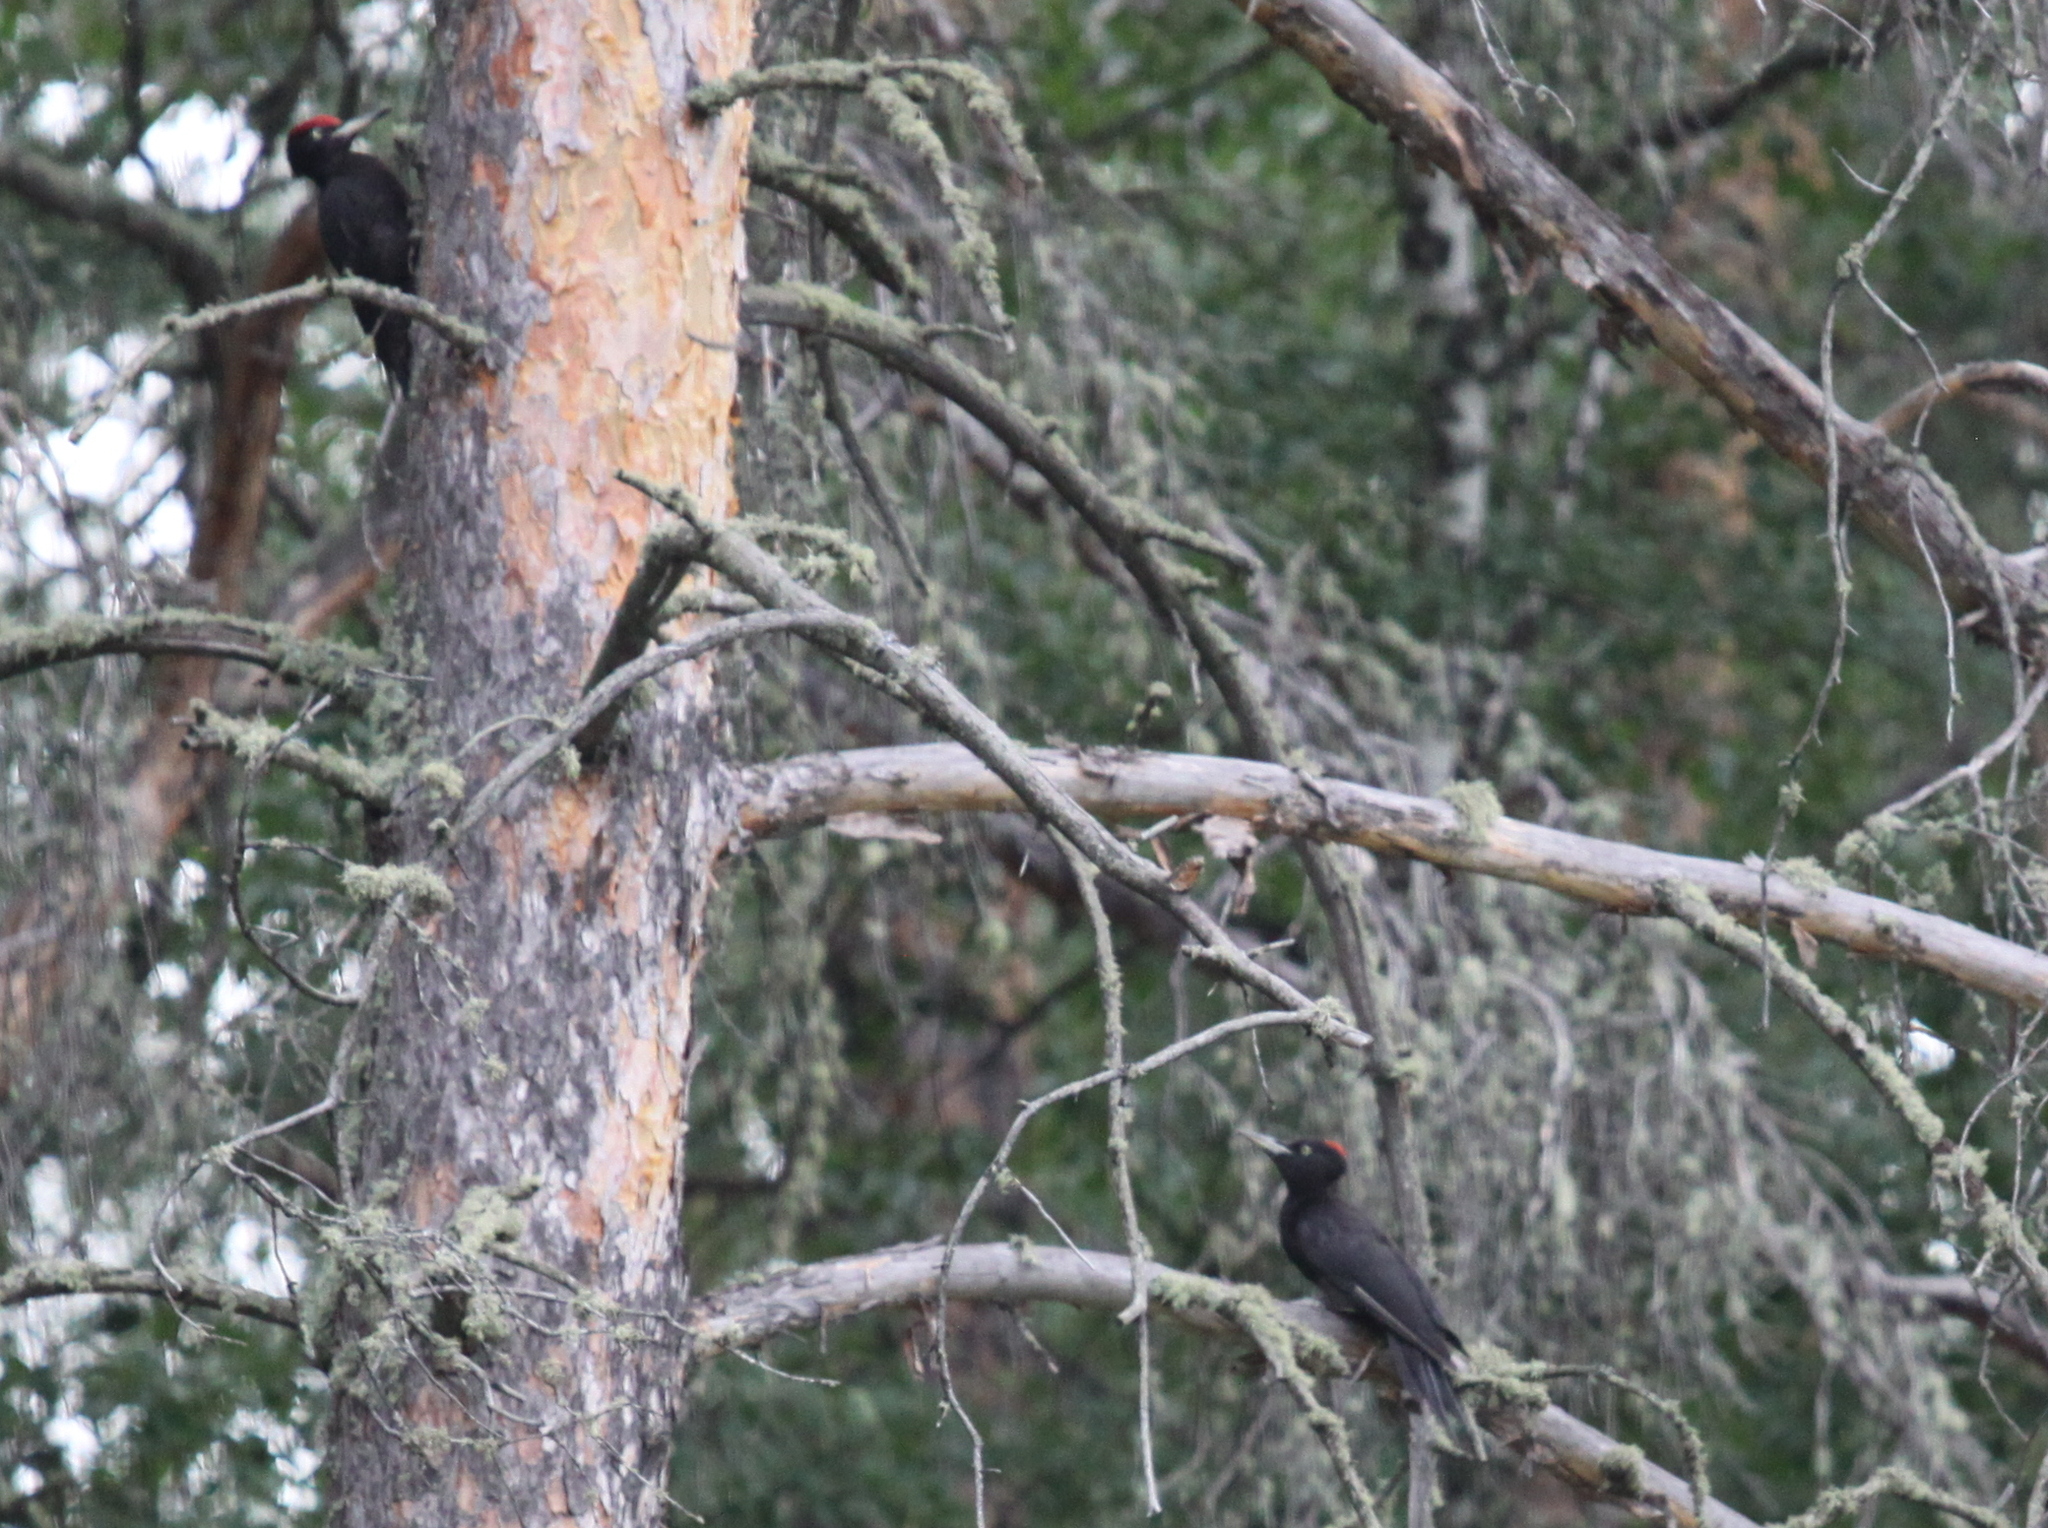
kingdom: Animalia
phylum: Chordata
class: Aves
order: Piciformes
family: Picidae
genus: Dryocopus
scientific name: Dryocopus martius
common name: Black woodpecker
